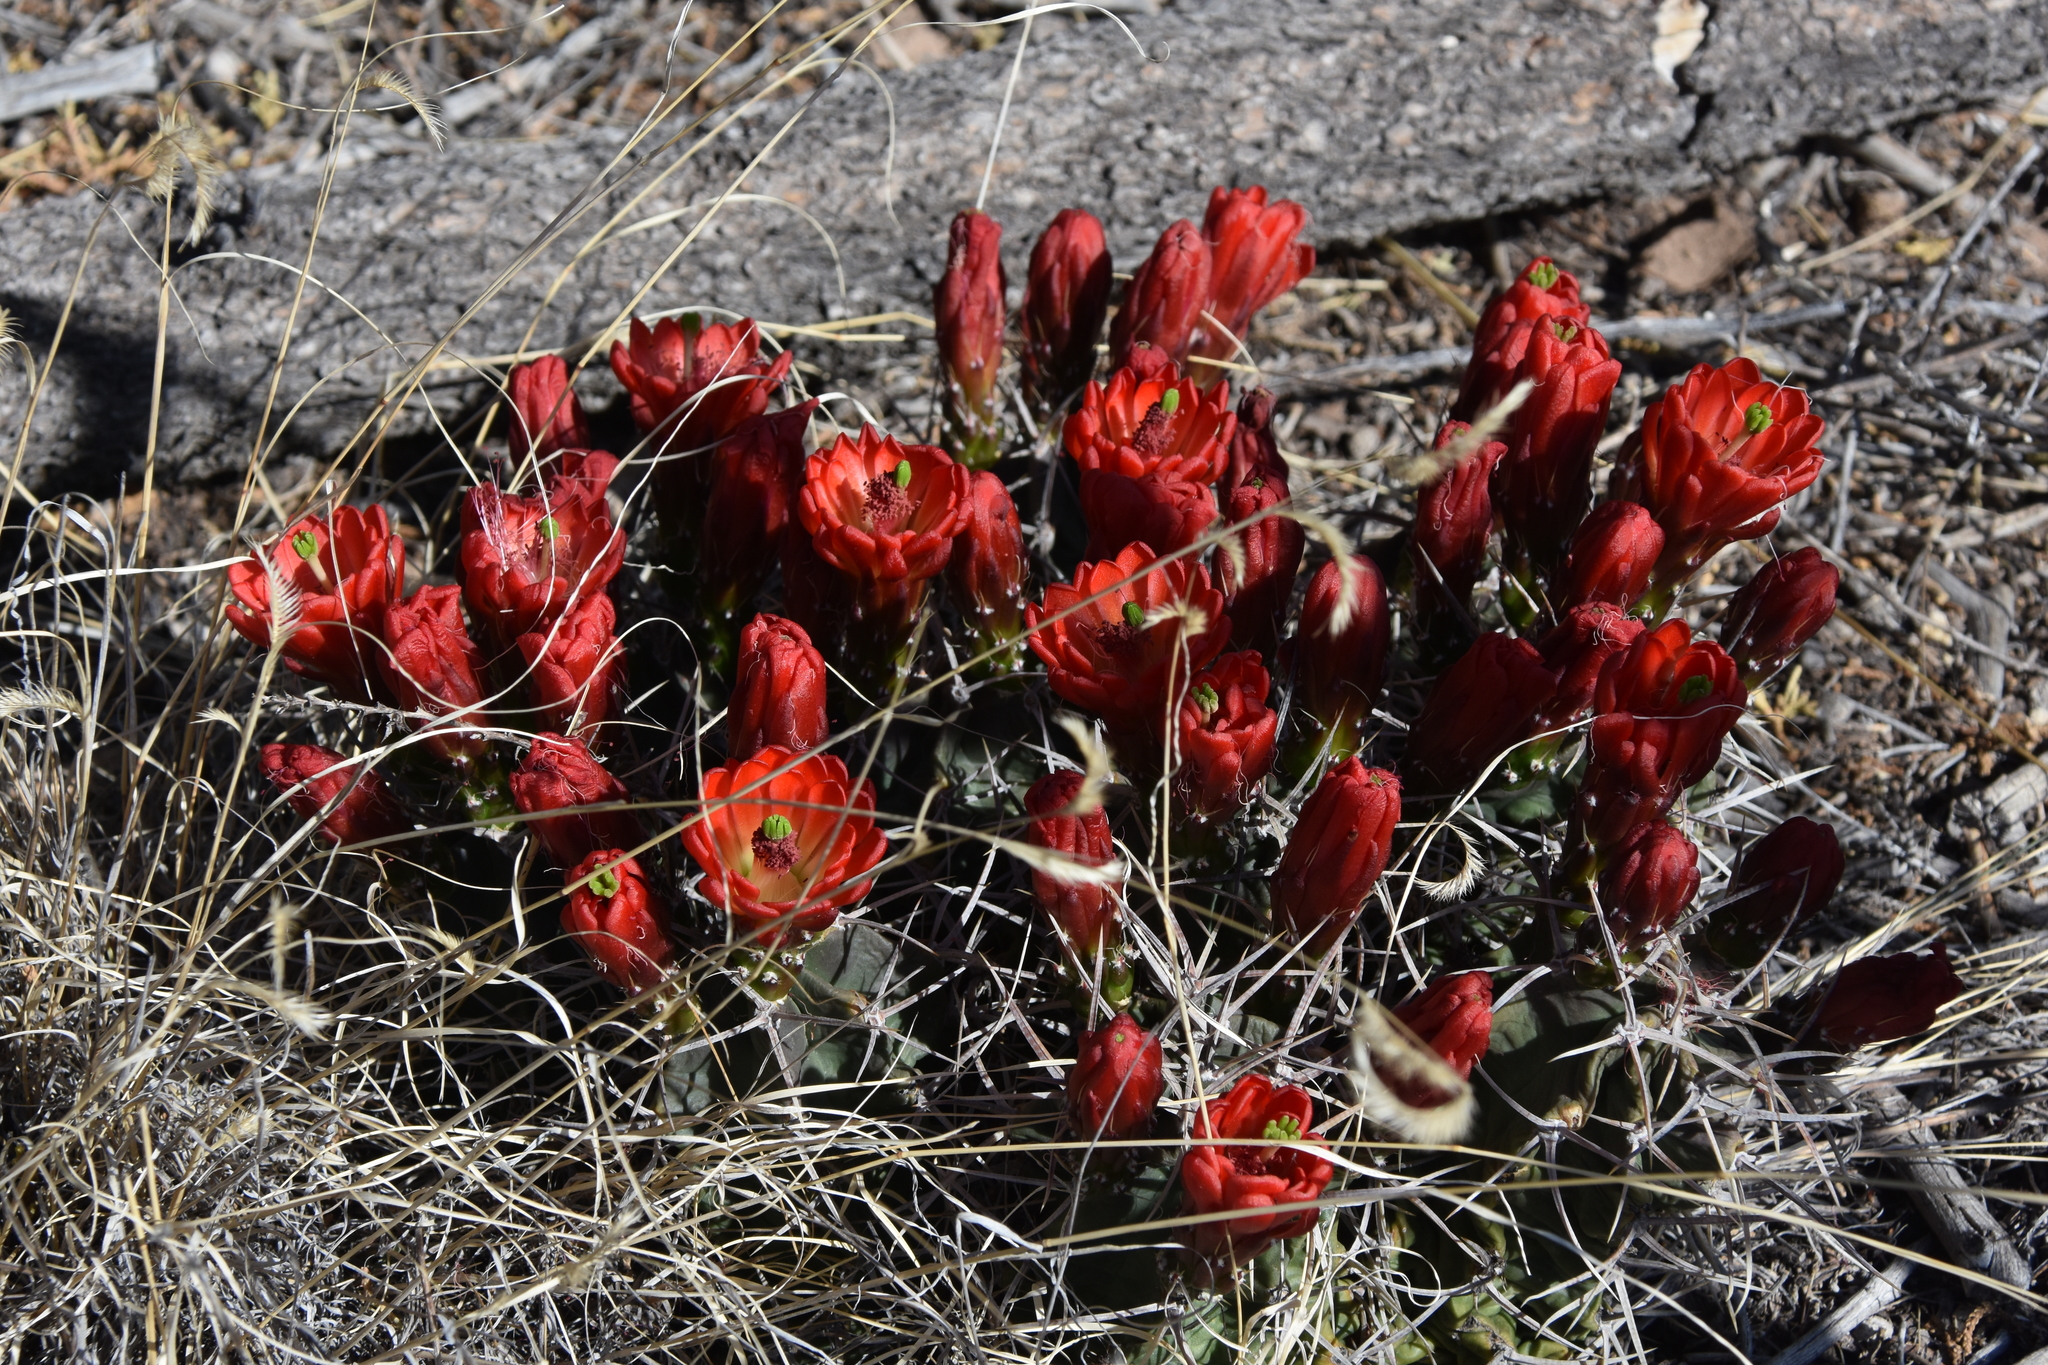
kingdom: Plantae
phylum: Tracheophyta
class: Magnoliopsida
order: Caryophyllales
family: Cactaceae
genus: Echinocereus
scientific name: Echinocereus triglochidiatus
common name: Claretcup hedgehog
